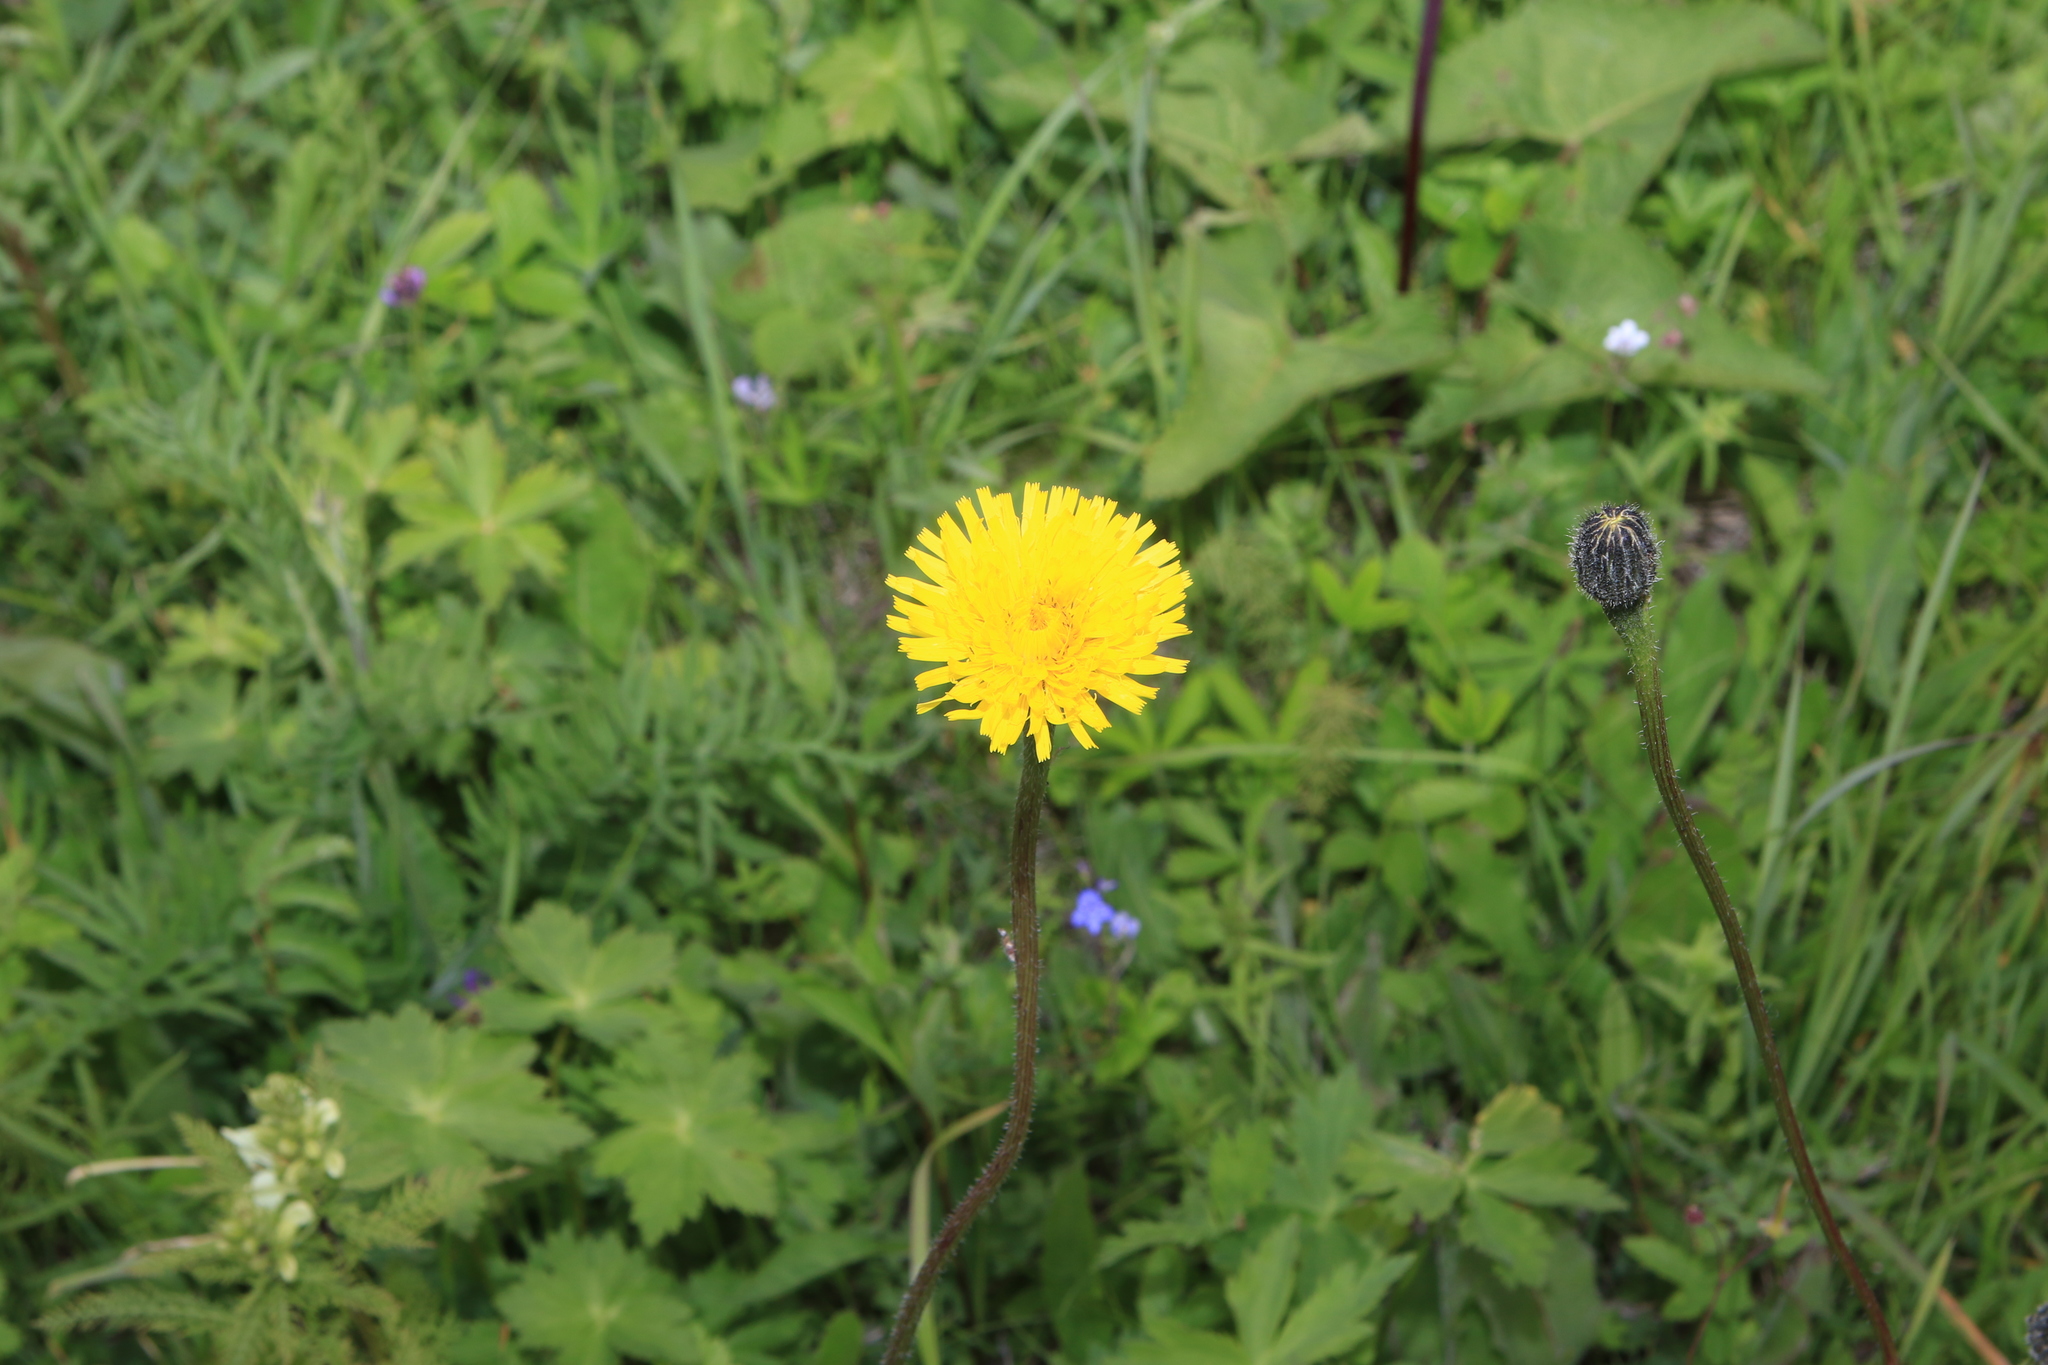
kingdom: Plantae
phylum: Tracheophyta
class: Magnoliopsida
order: Asterales
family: Asteraceae
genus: Trommsdorffia
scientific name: Trommsdorffia maculata
